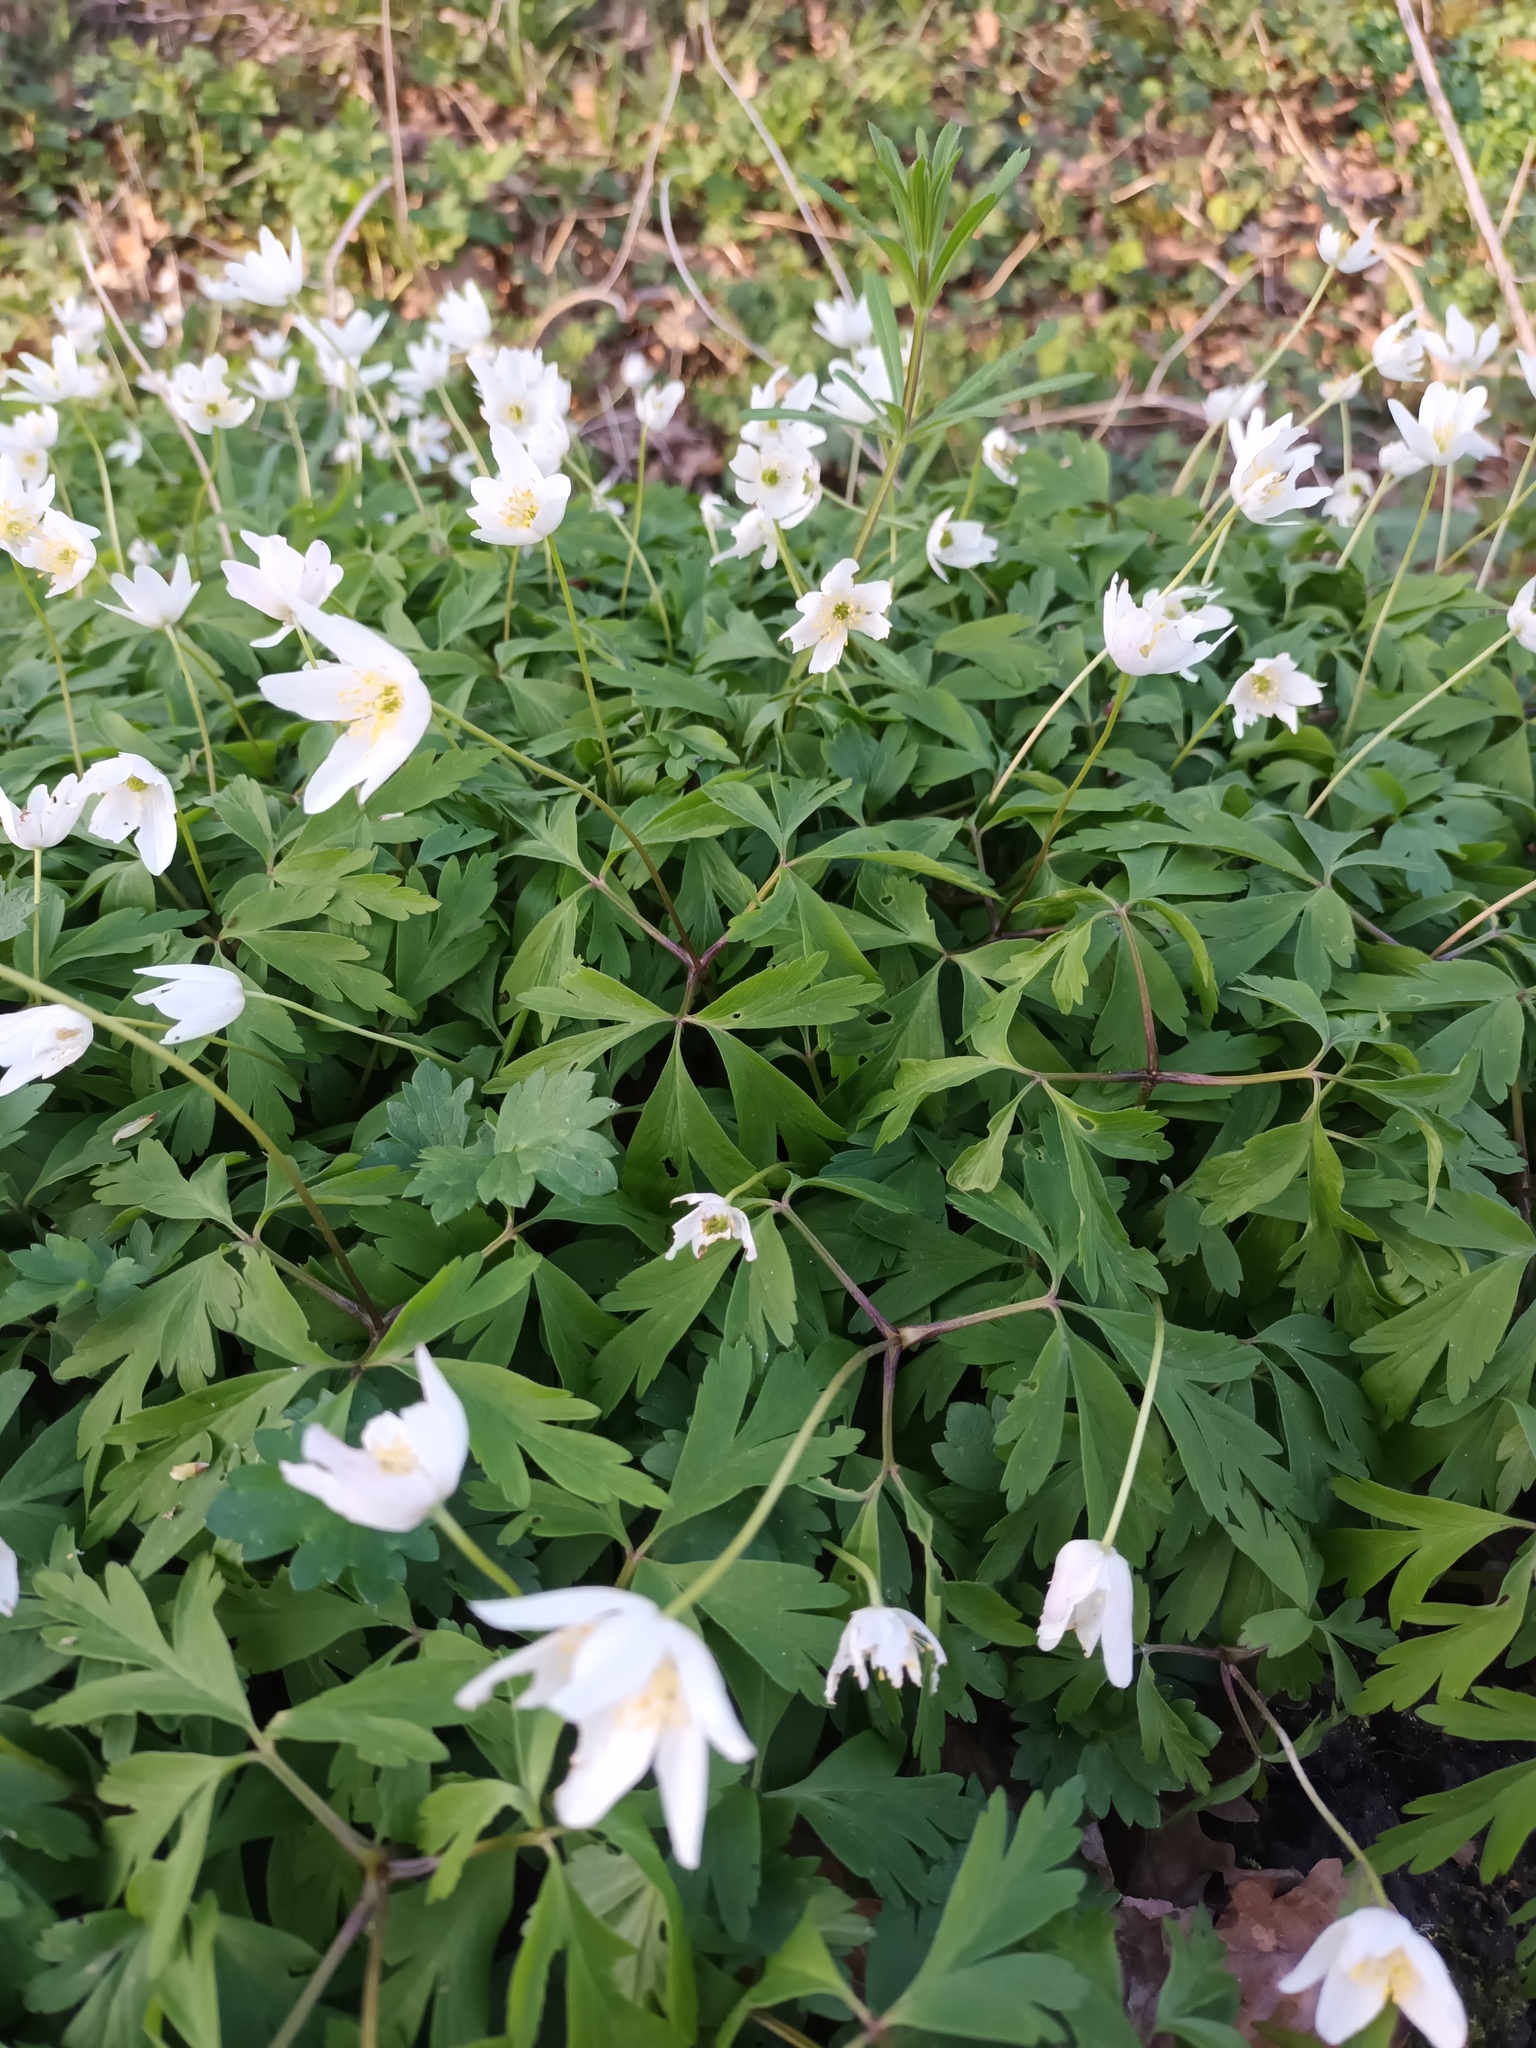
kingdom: Plantae
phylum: Tracheophyta
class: Magnoliopsida
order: Ranunculales
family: Ranunculaceae
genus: Anemone
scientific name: Anemone nemorosa
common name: Wood anemone
